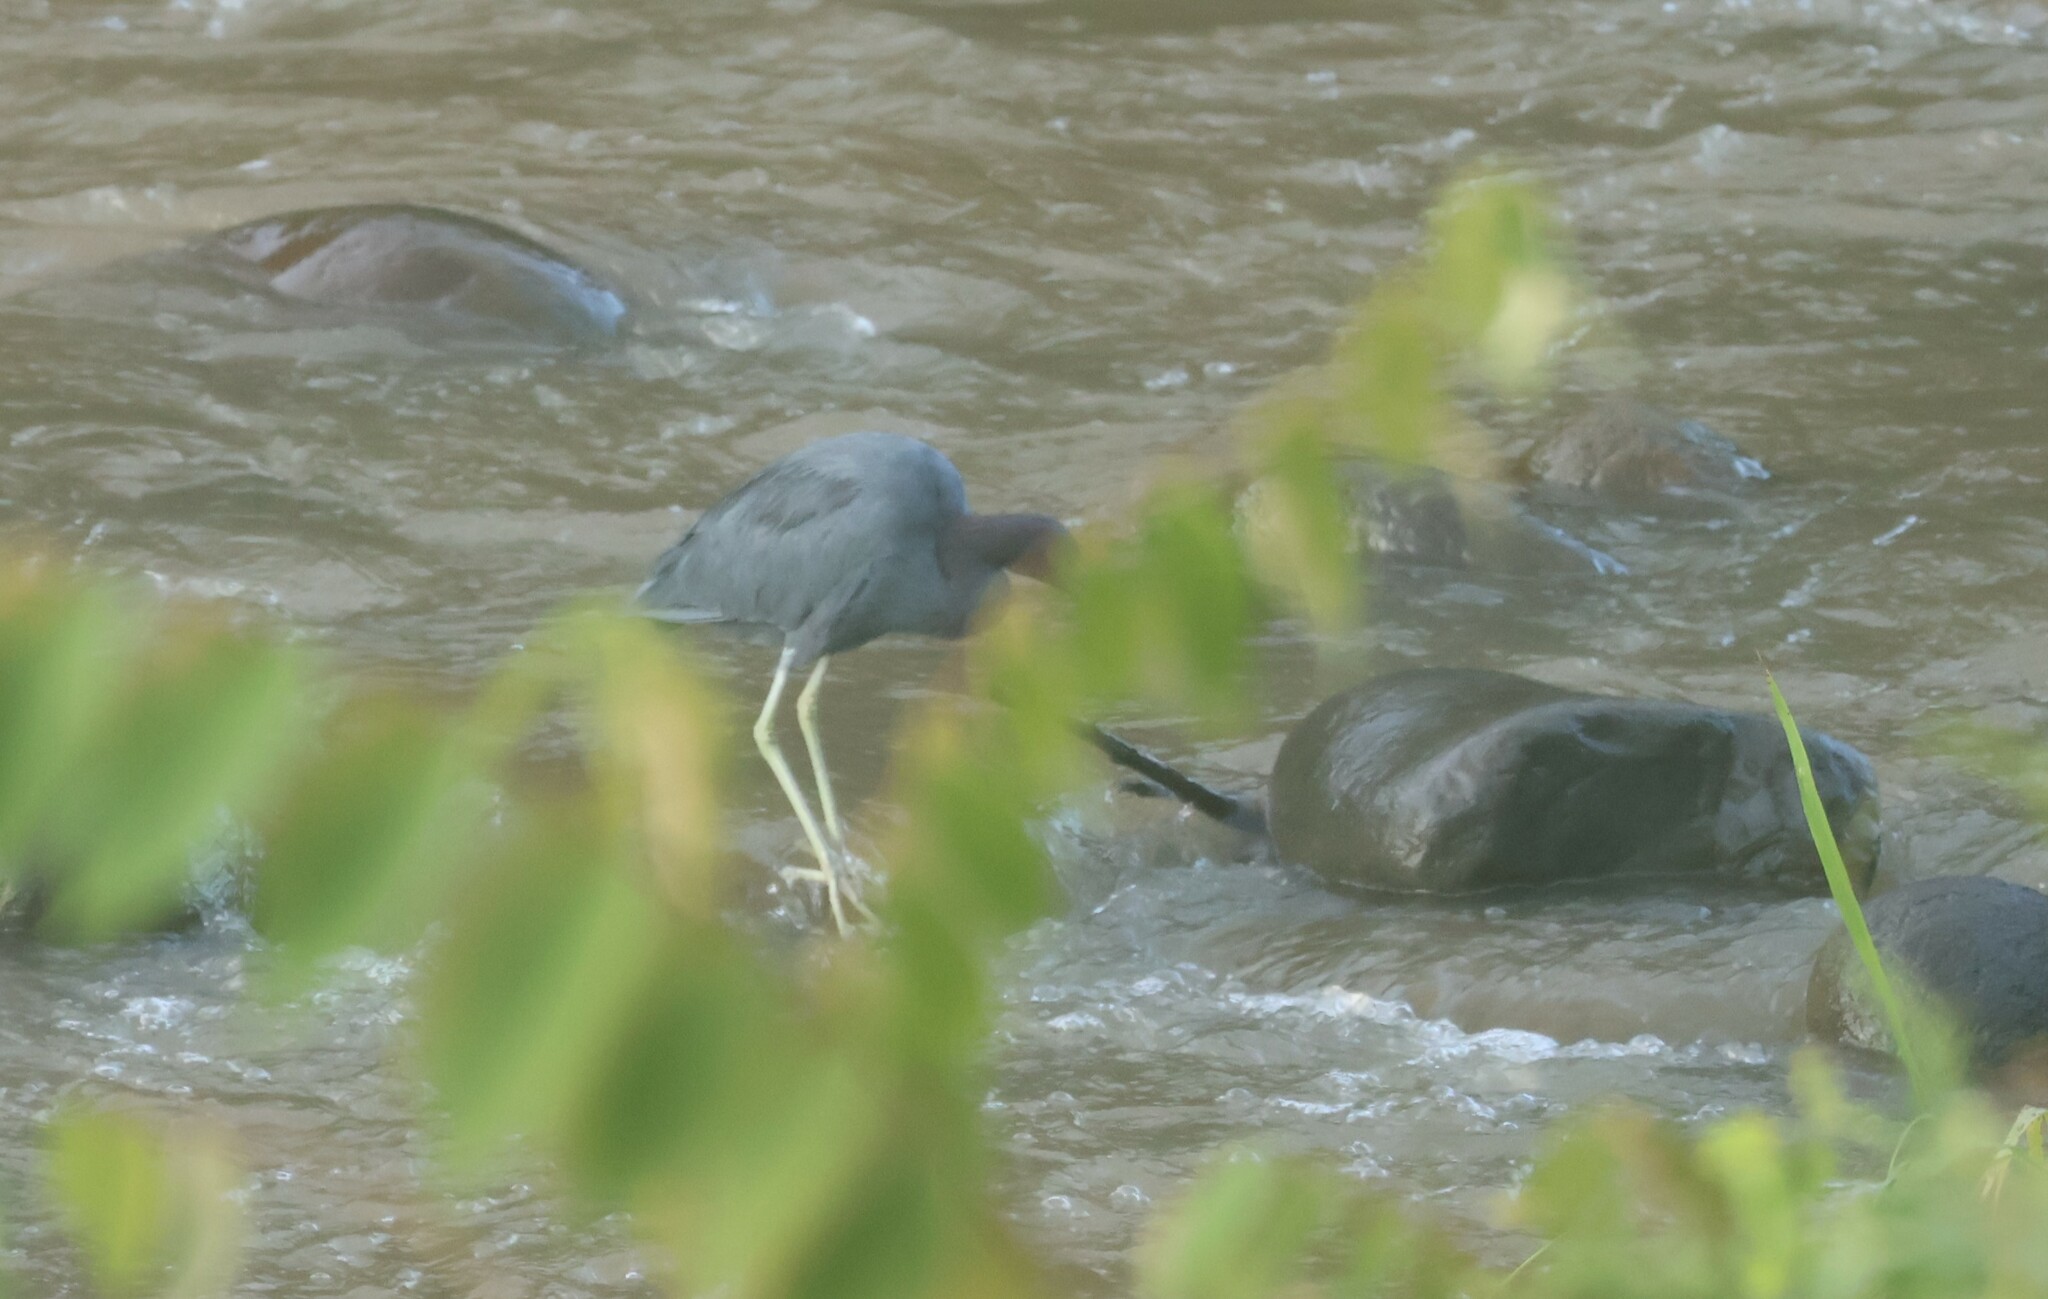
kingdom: Animalia
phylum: Chordata
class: Aves
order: Pelecaniformes
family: Ardeidae
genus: Egretta
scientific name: Egretta caerulea
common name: Little blue heron
